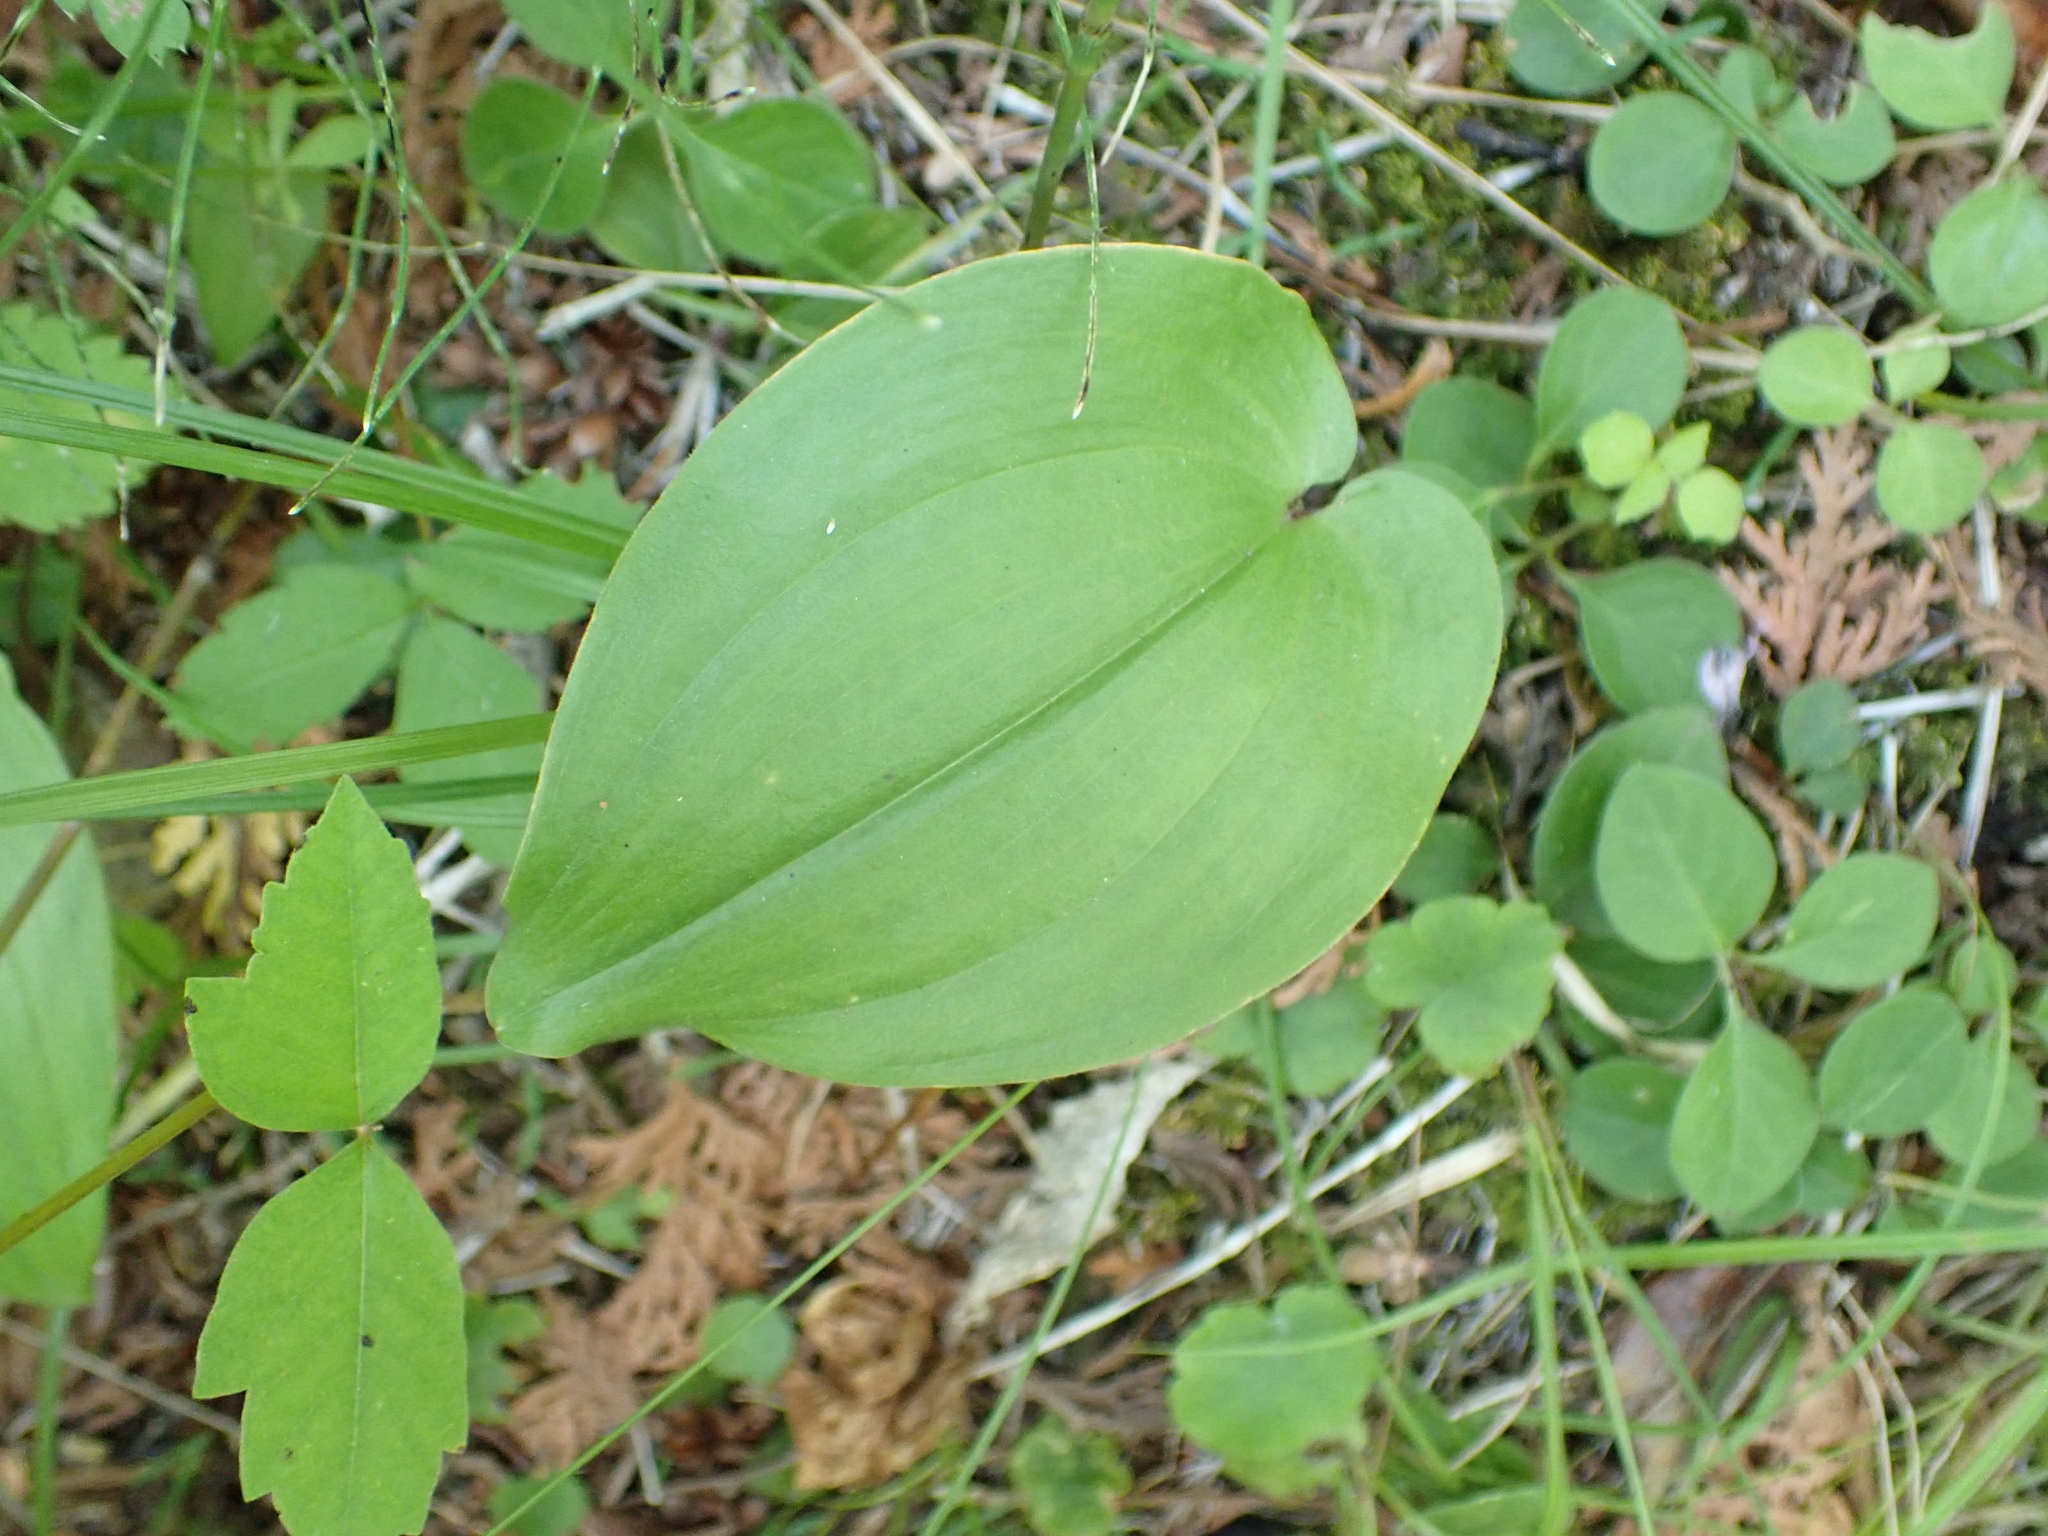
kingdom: Plantae
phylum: Tracheophyta
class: Liliopsida
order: Asparagales
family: Asparagaceae
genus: Maianthemum
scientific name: Maianthemum canadense
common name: False lily-of-the-valley
